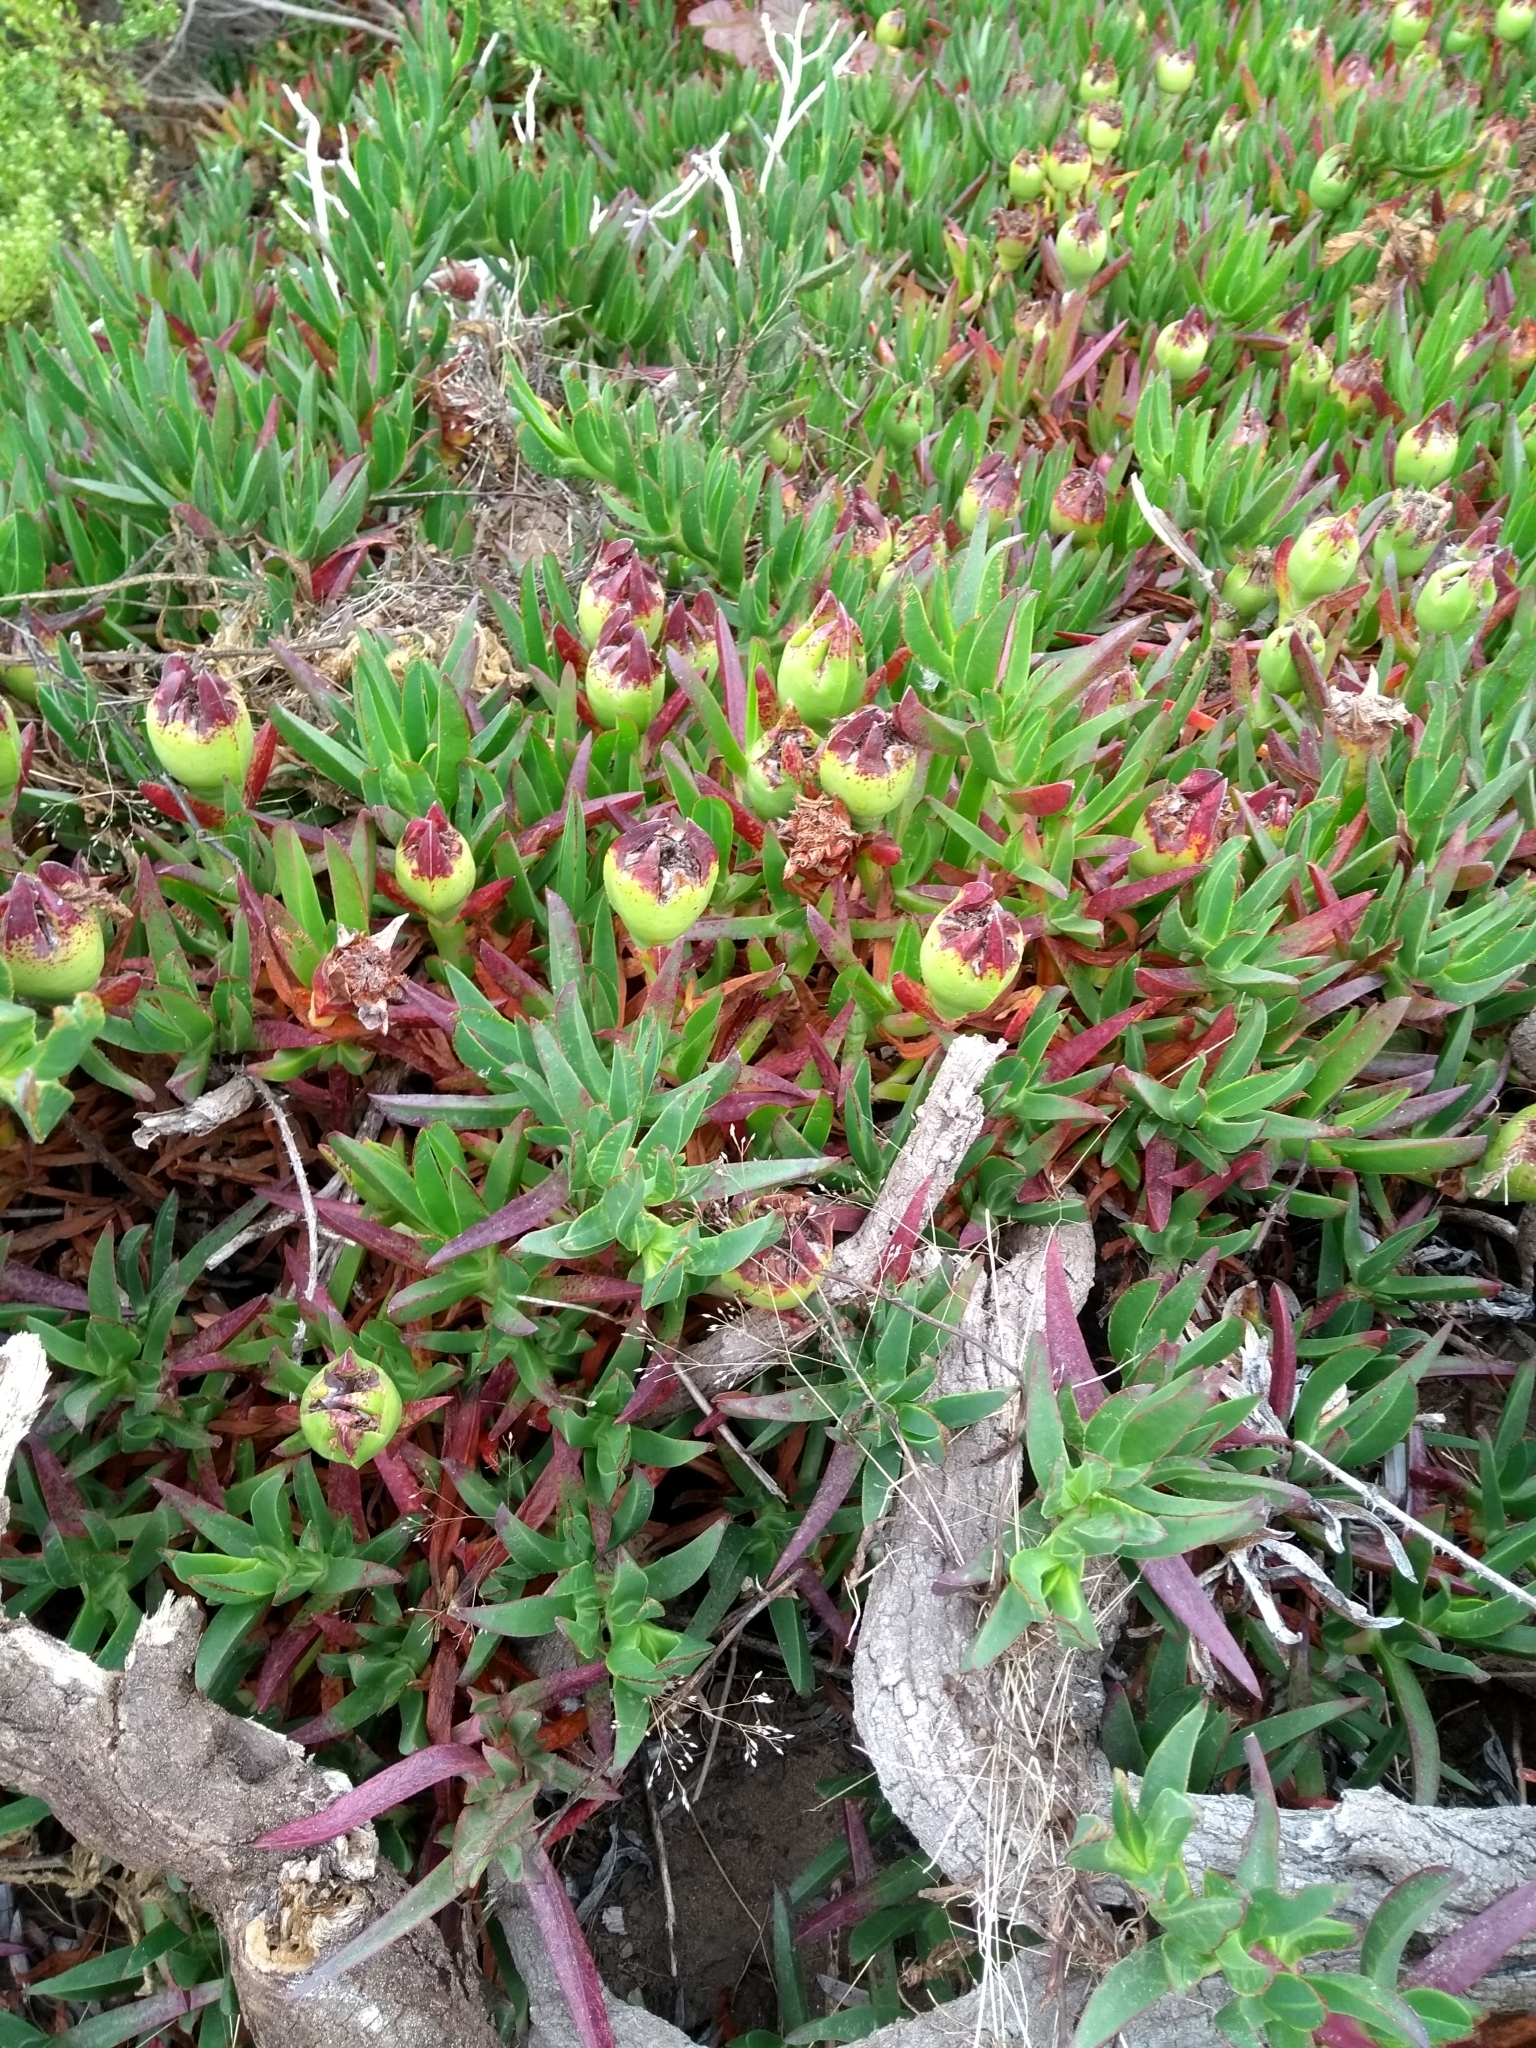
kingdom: Plantae
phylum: Tracheophyta
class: Magnoliopsida
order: Caryophyllales
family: Aizoaceae
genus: Carpobrotus
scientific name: Carpobrotus edulis
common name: Hottentot-fig
